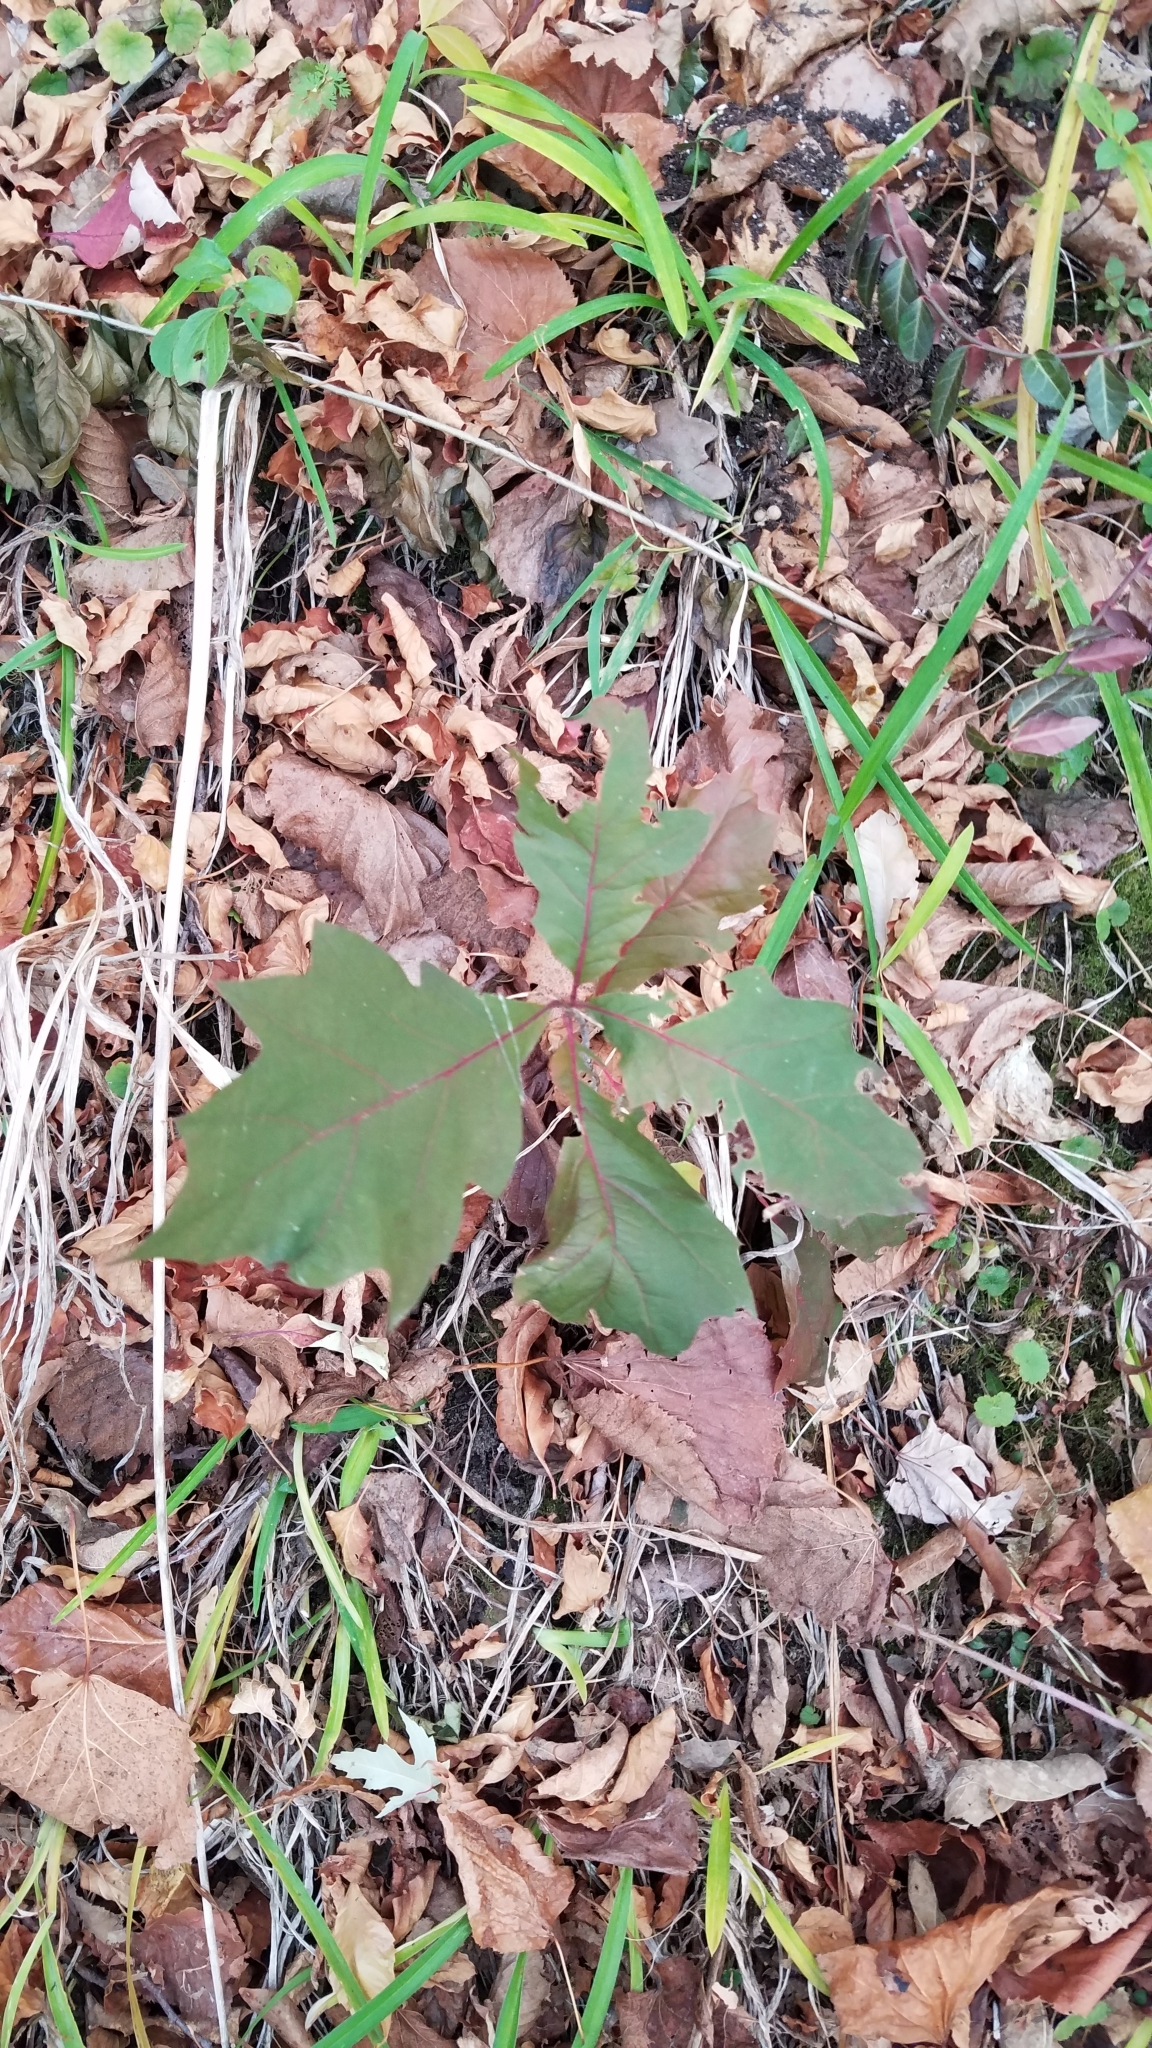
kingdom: Plantae
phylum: Tracheophyta
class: Magnoliopsida
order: Fagales
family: Fagaceae
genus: Quercus
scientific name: Quercus rubra
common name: Red oak
